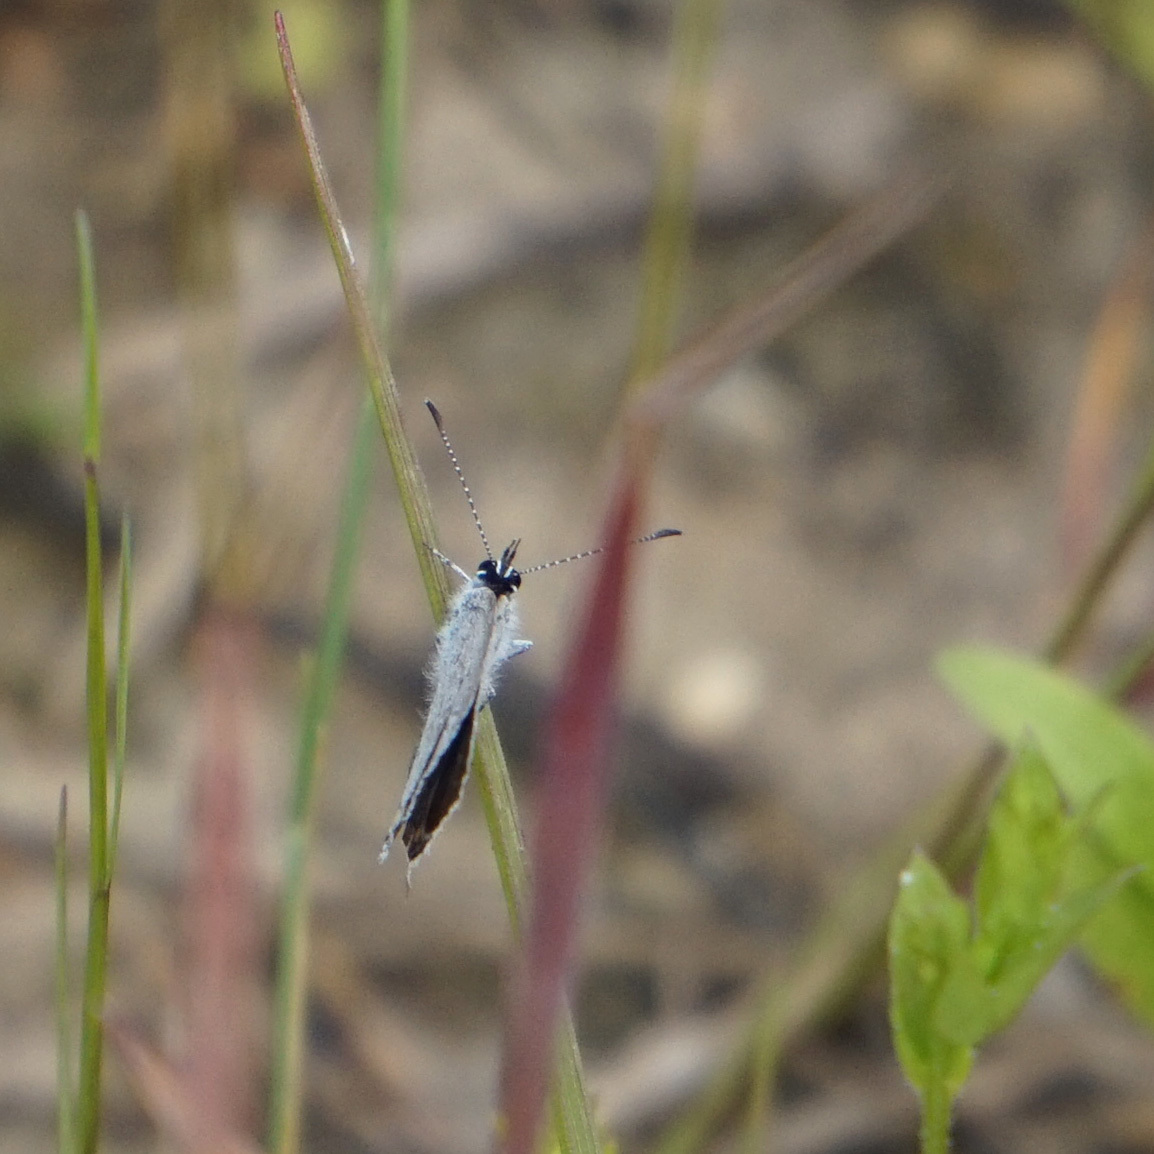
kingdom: Animalia
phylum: Arthropoda
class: Insecta
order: Lepidoptera
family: Lycaenidae
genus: Elkalyce
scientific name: Elkalyce comyntas
